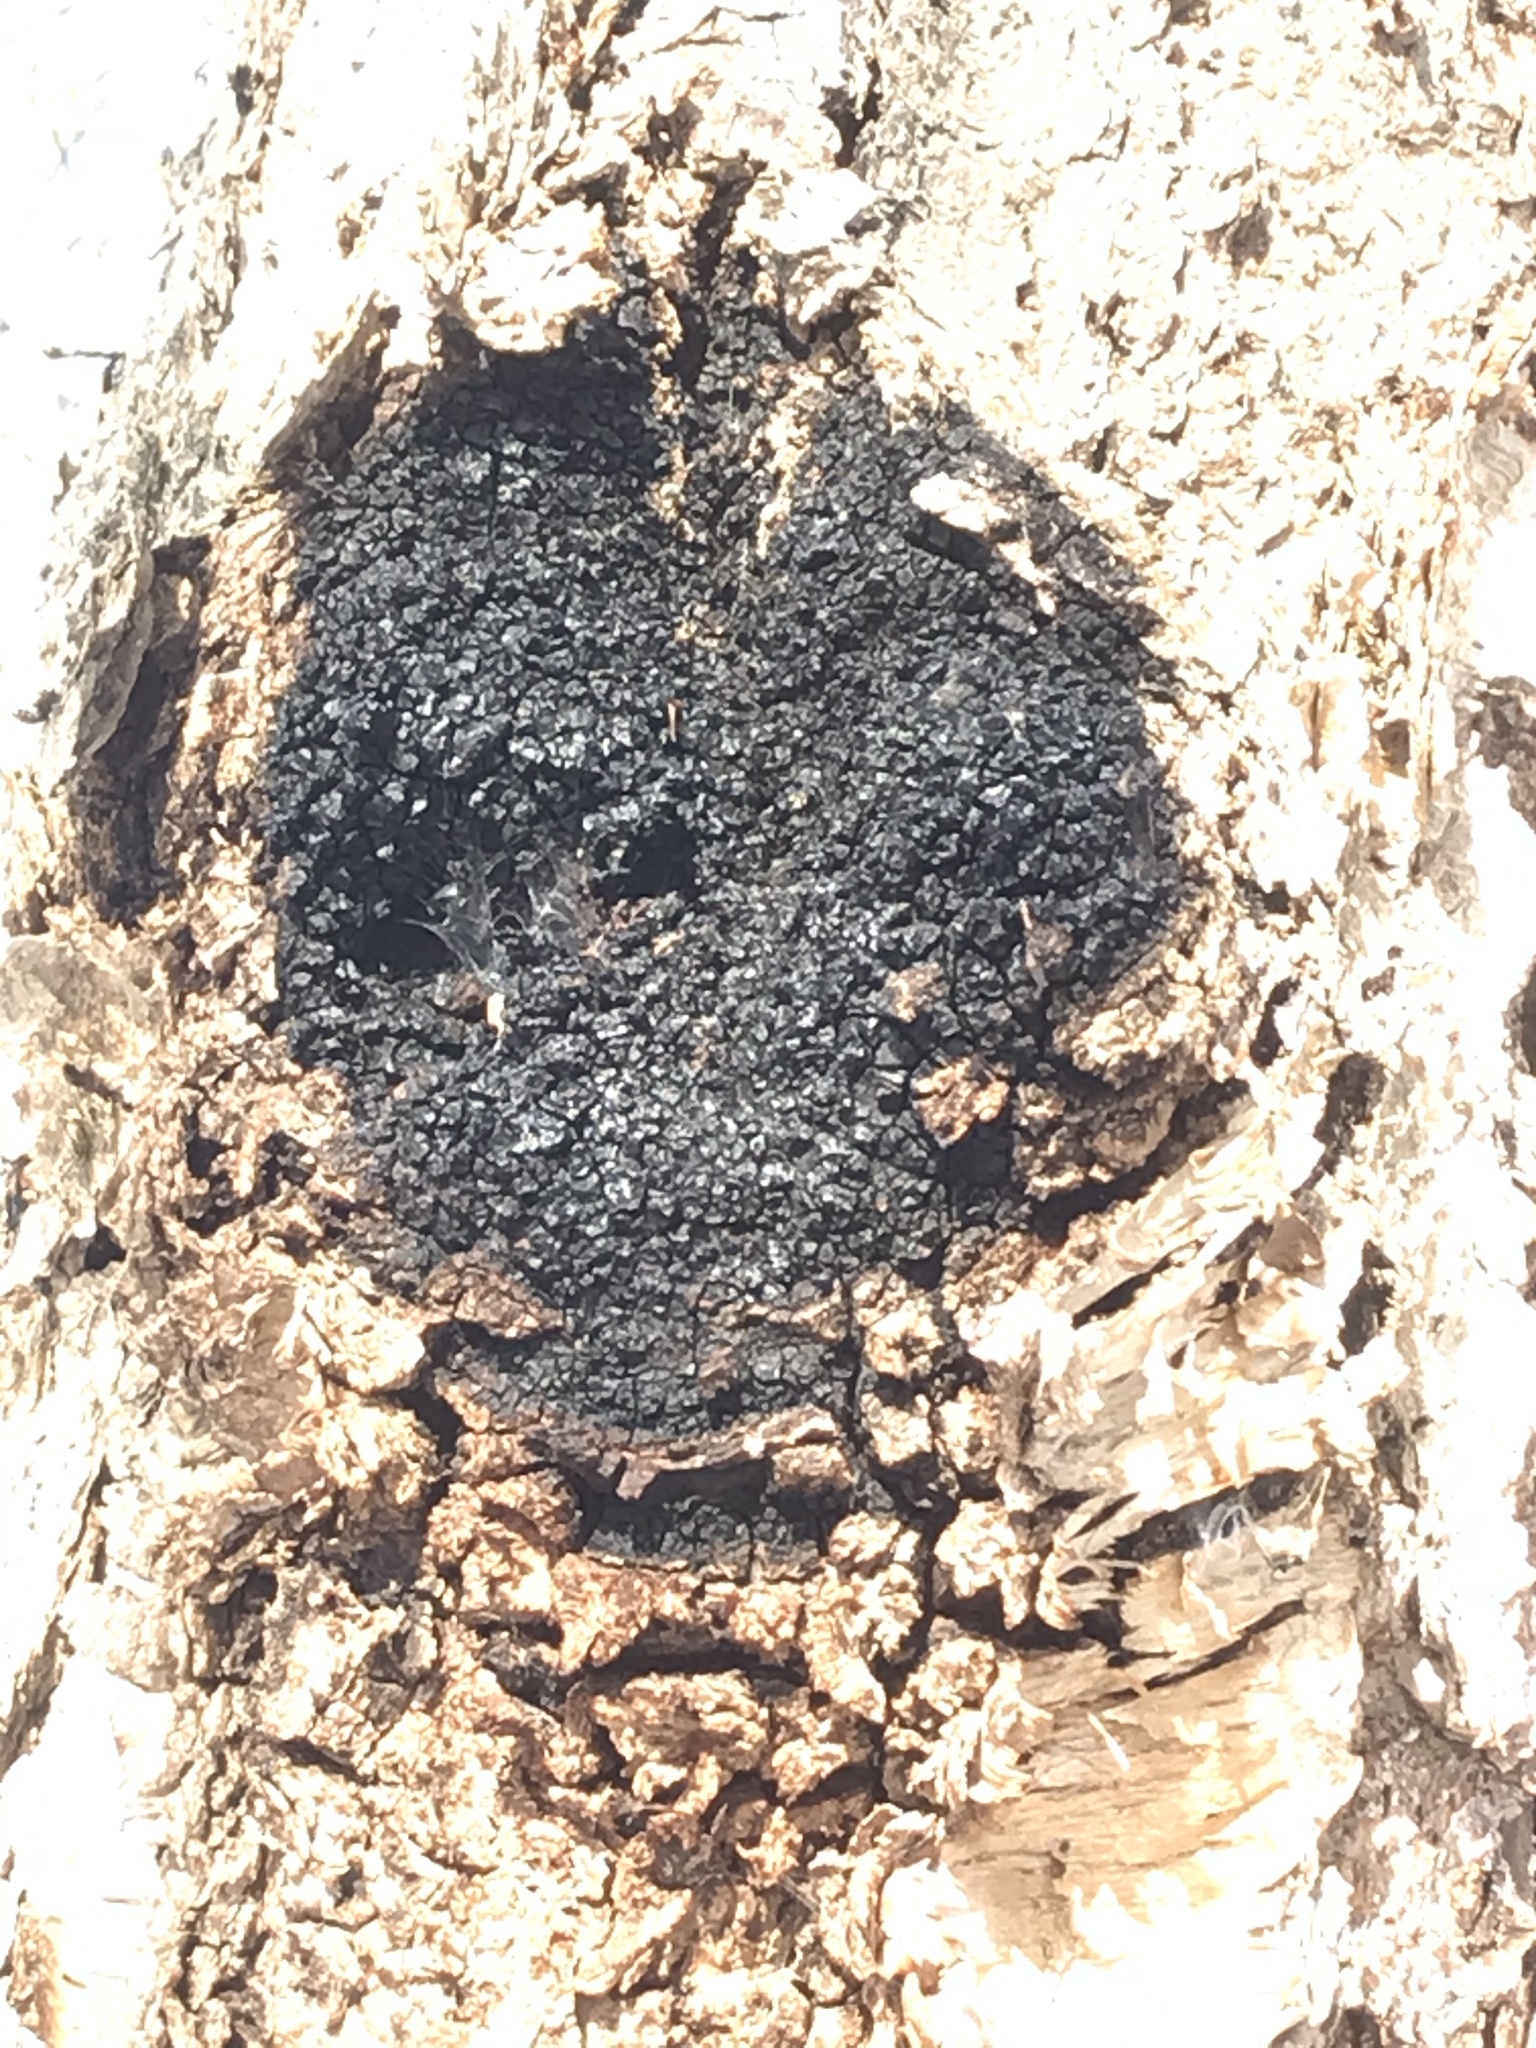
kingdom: Fungi
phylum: Basidiomycota
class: Agaricomycetes
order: Hymenochaetales
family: Hymenochaetaceae
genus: Inonotus
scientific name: Inonotus obliquus
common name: Chaga
